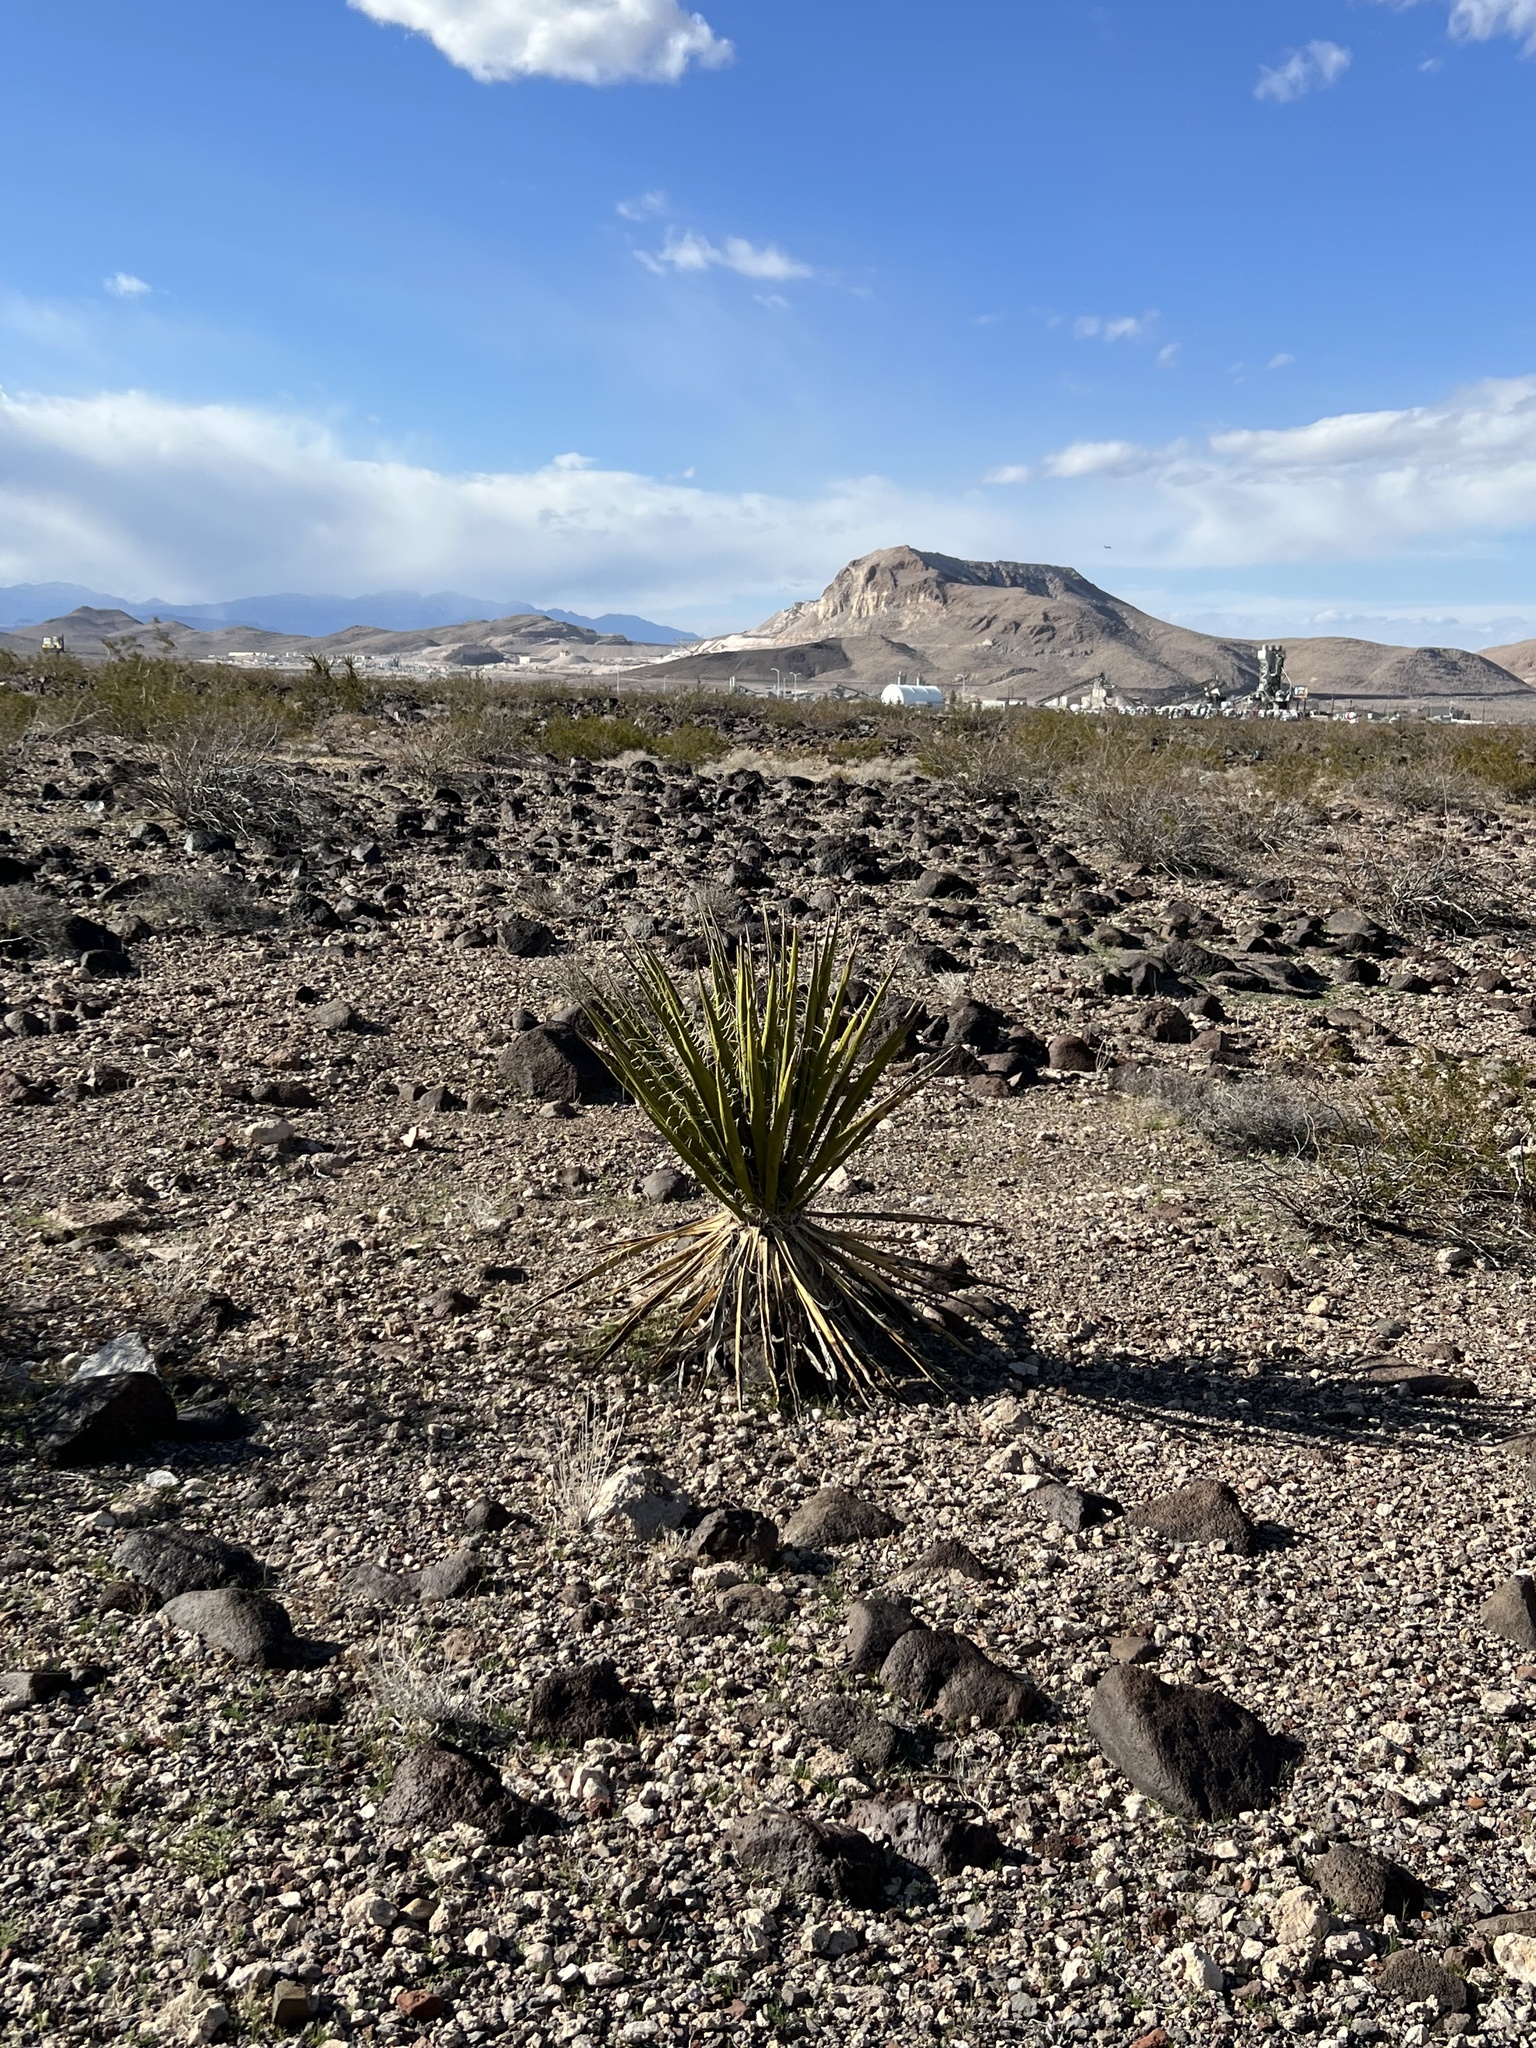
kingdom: Plantae
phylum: Tracheophyta
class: Liliopsida
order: Asparagales
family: Asparagaceae
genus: Yucca
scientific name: Yucca schidigera
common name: Mojave yucca
